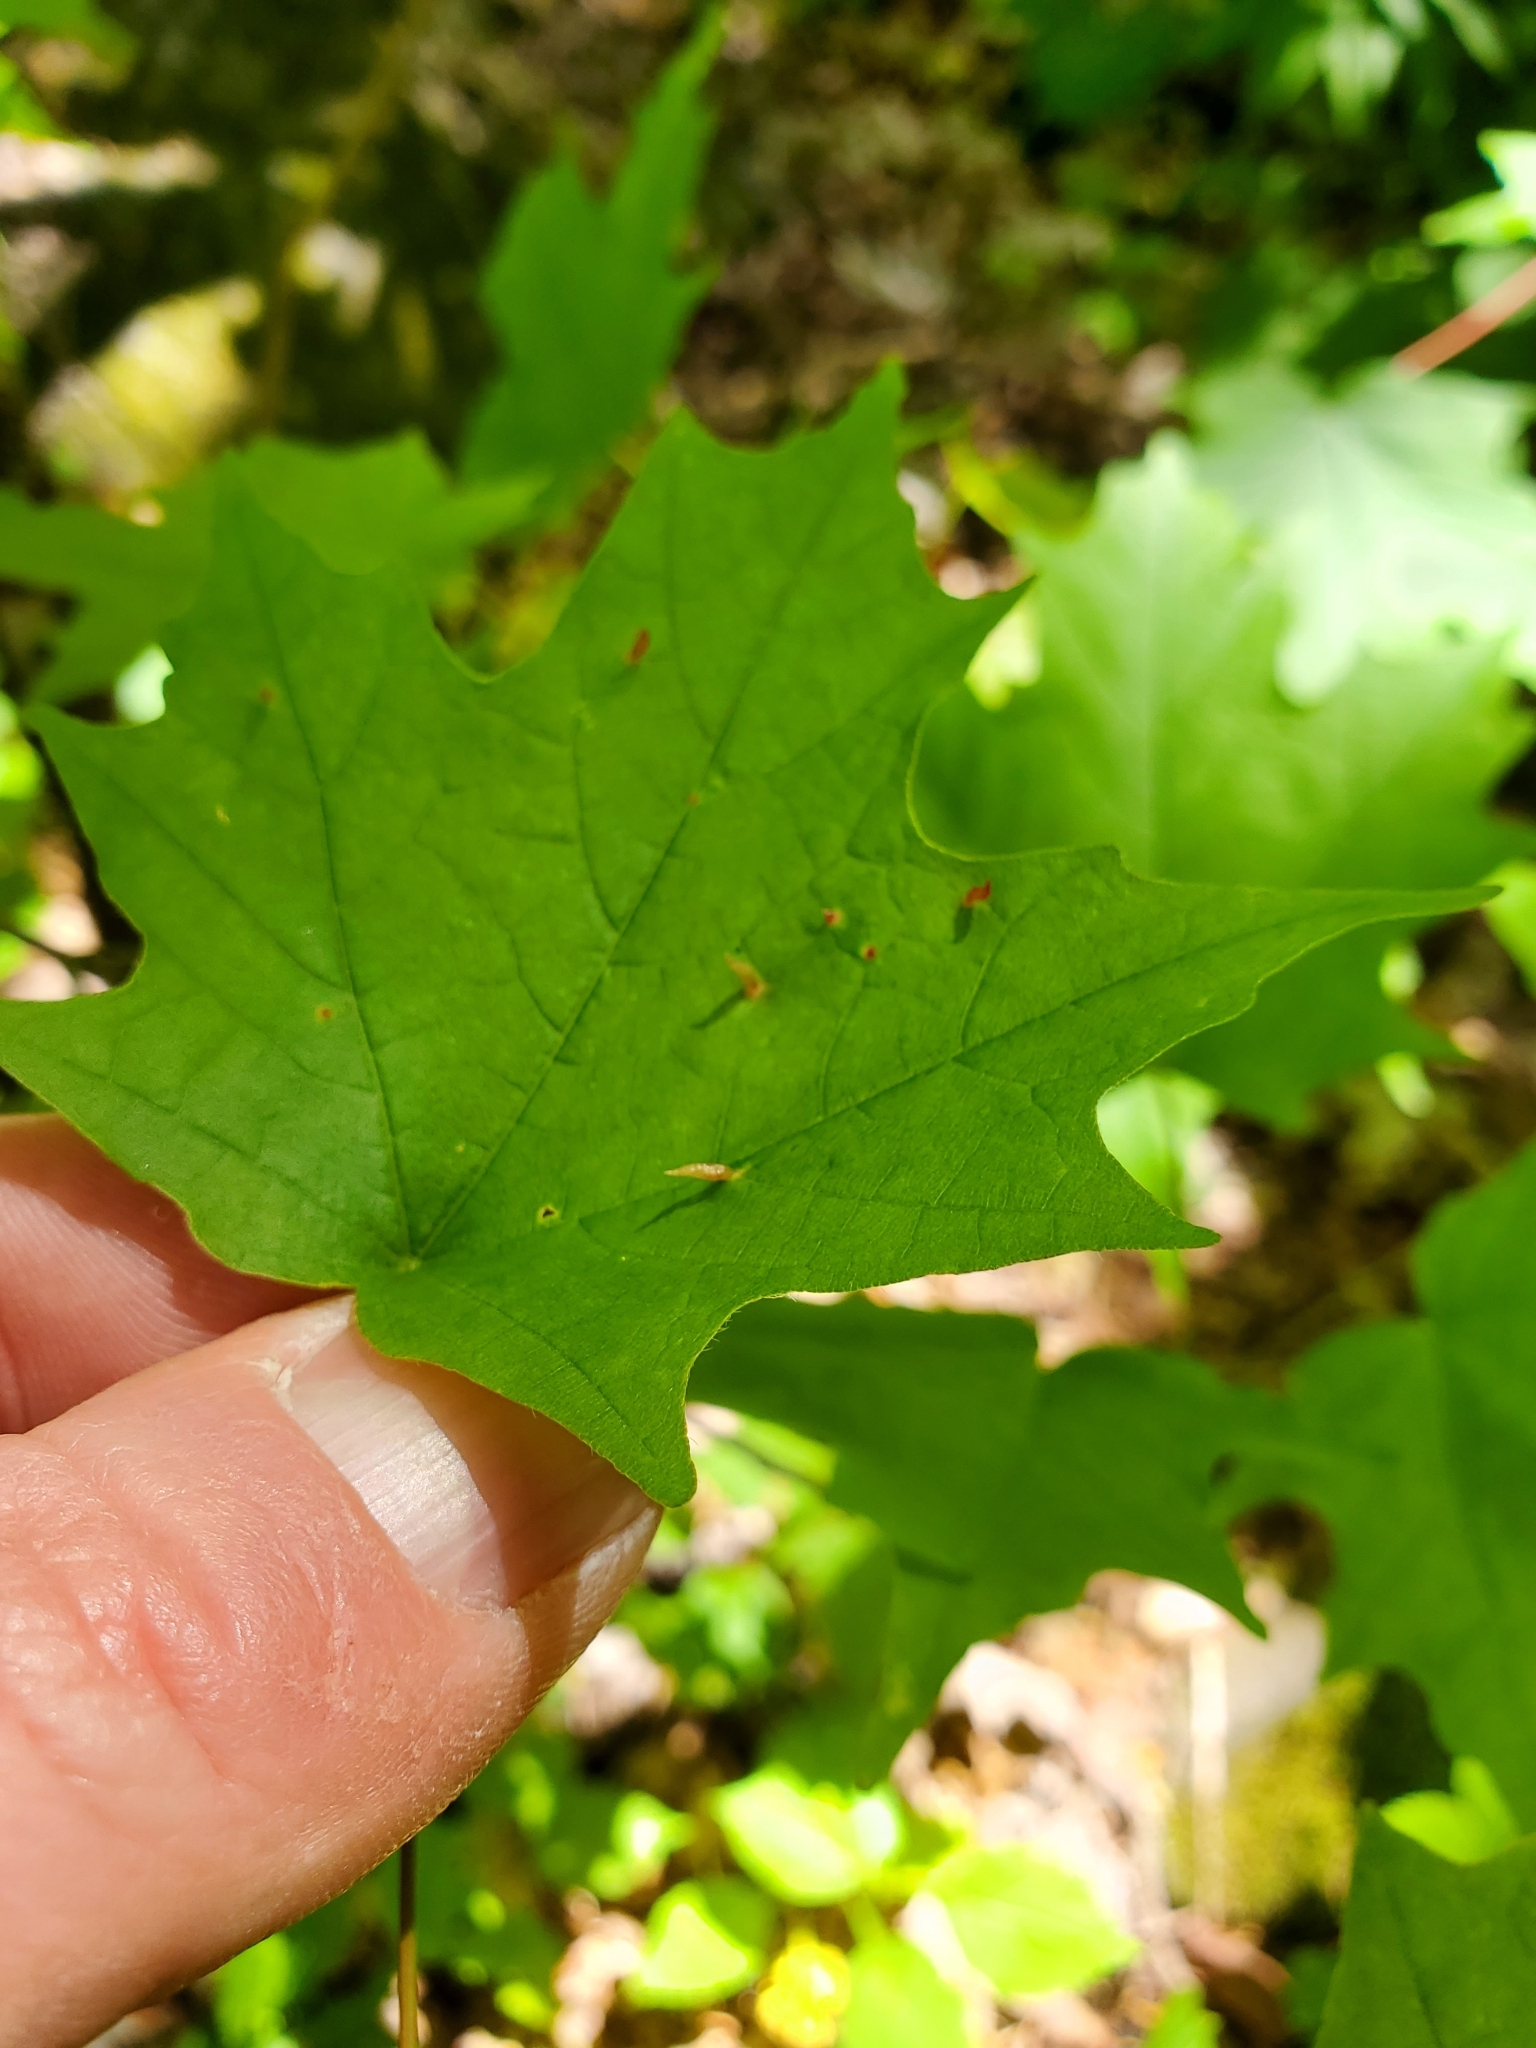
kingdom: Animalia
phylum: Arthropoda
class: Arachnida
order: Trombidiformes
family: Eriophyidae
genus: Vasates
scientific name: Vasates aceriscrumena
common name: Maple spindle gall mite
